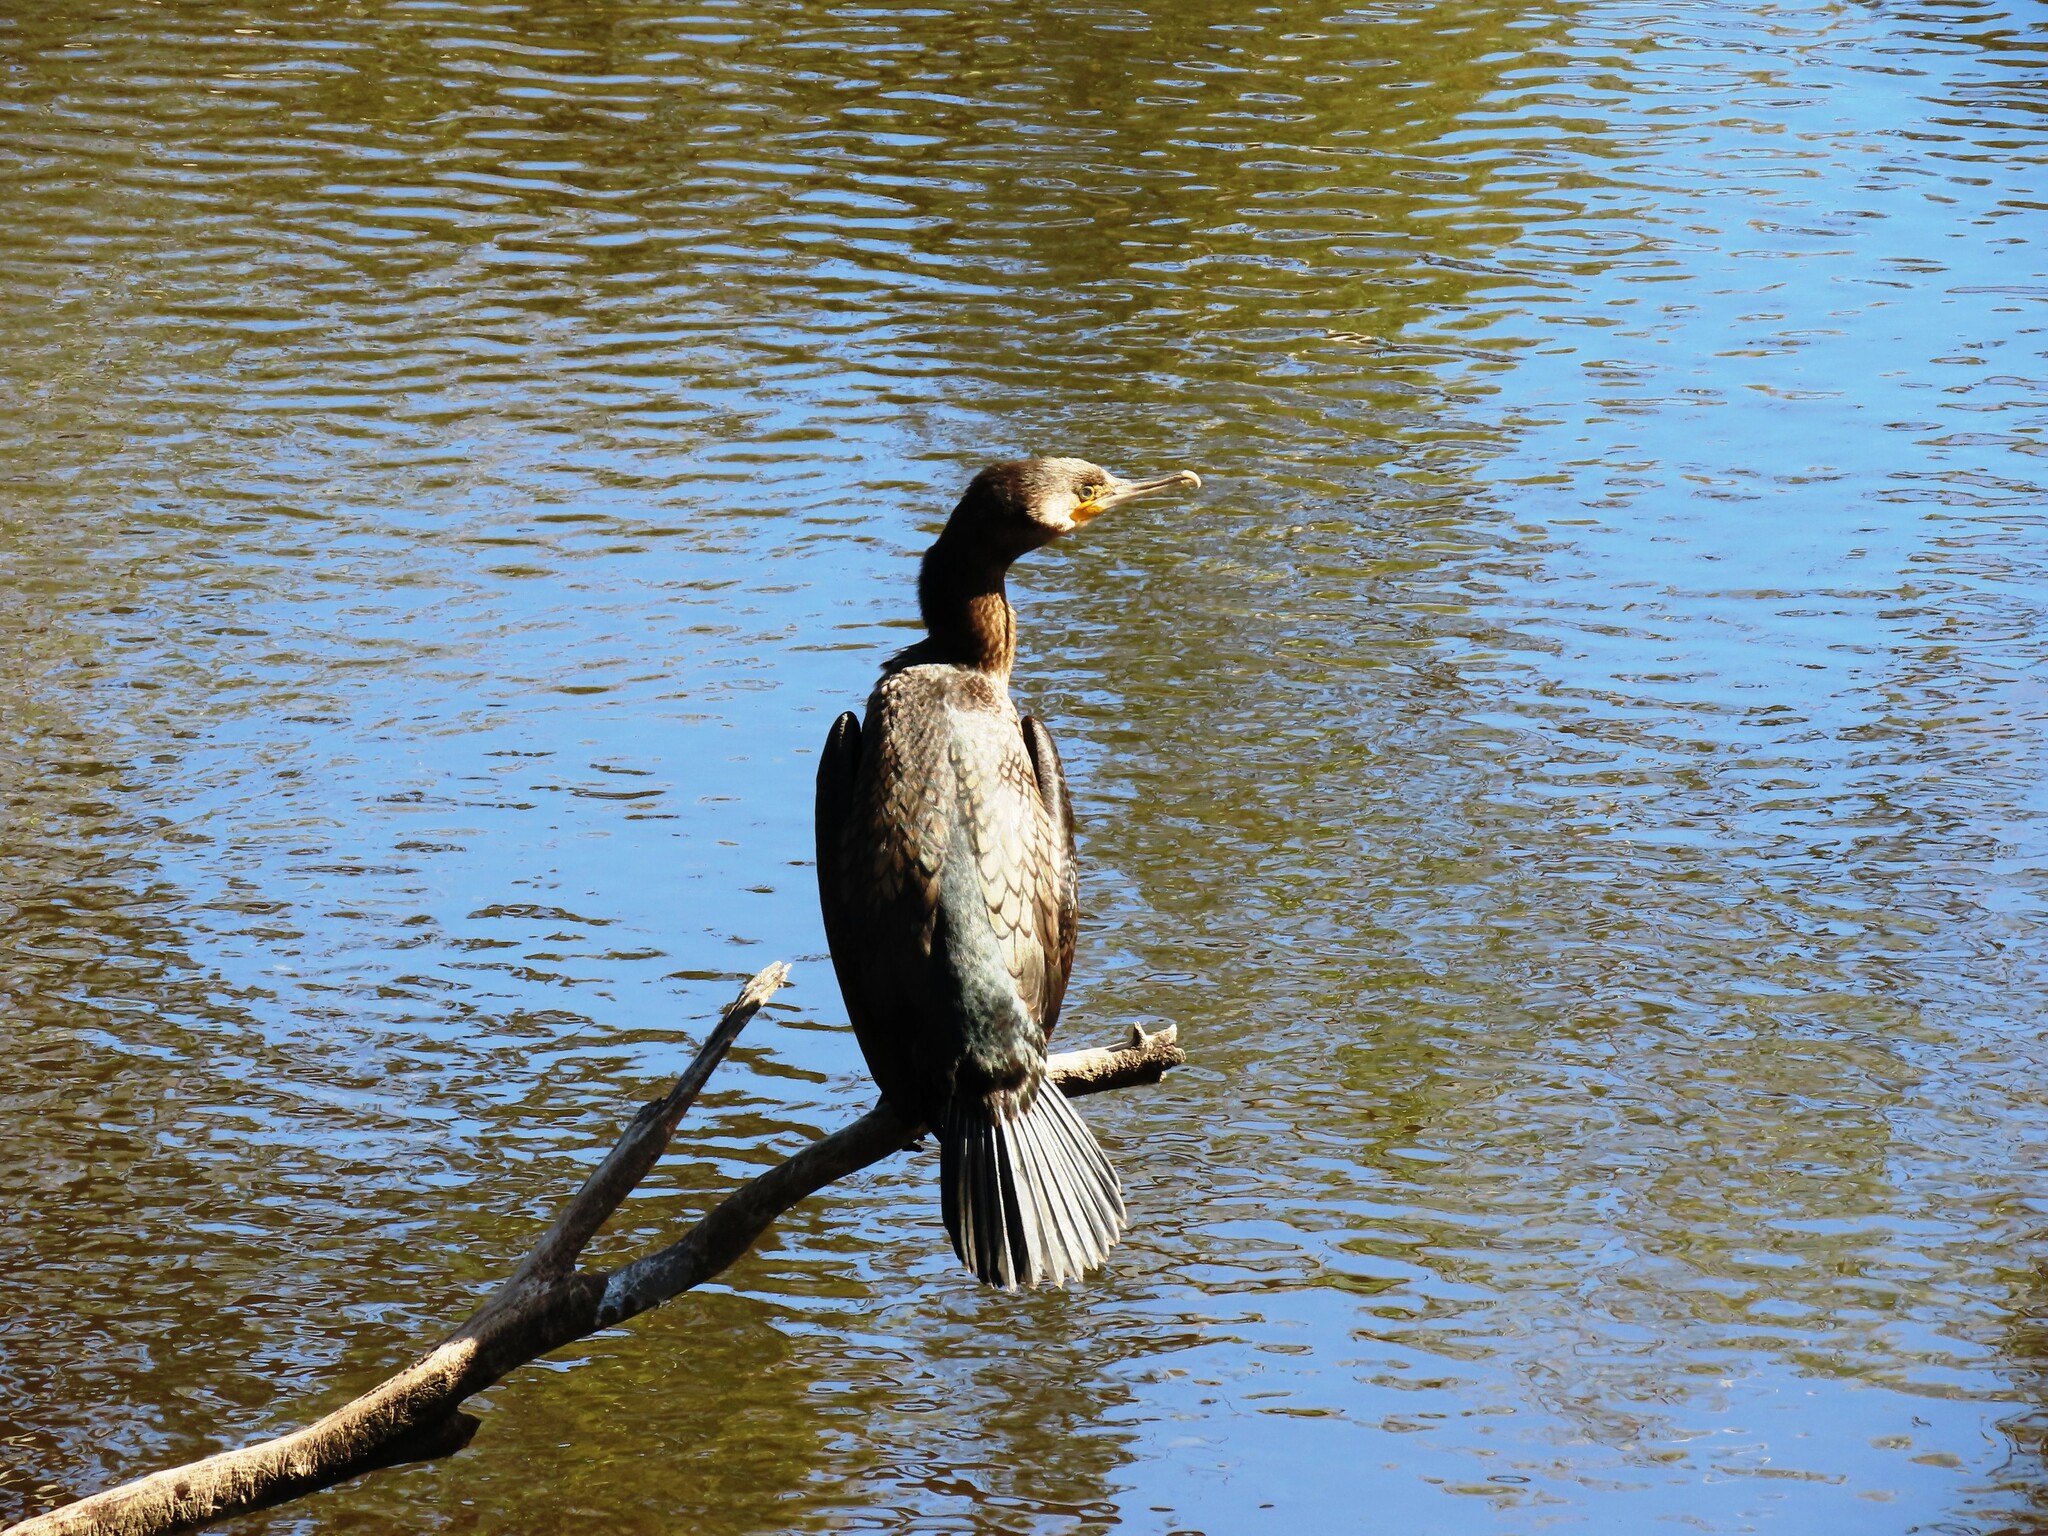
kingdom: Animalia
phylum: Chordata
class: Aves
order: Suliformes
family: Phalacrocoracidae
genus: Phalacrocorax
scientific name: Phalacrocorax carbo
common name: Great cormorant
